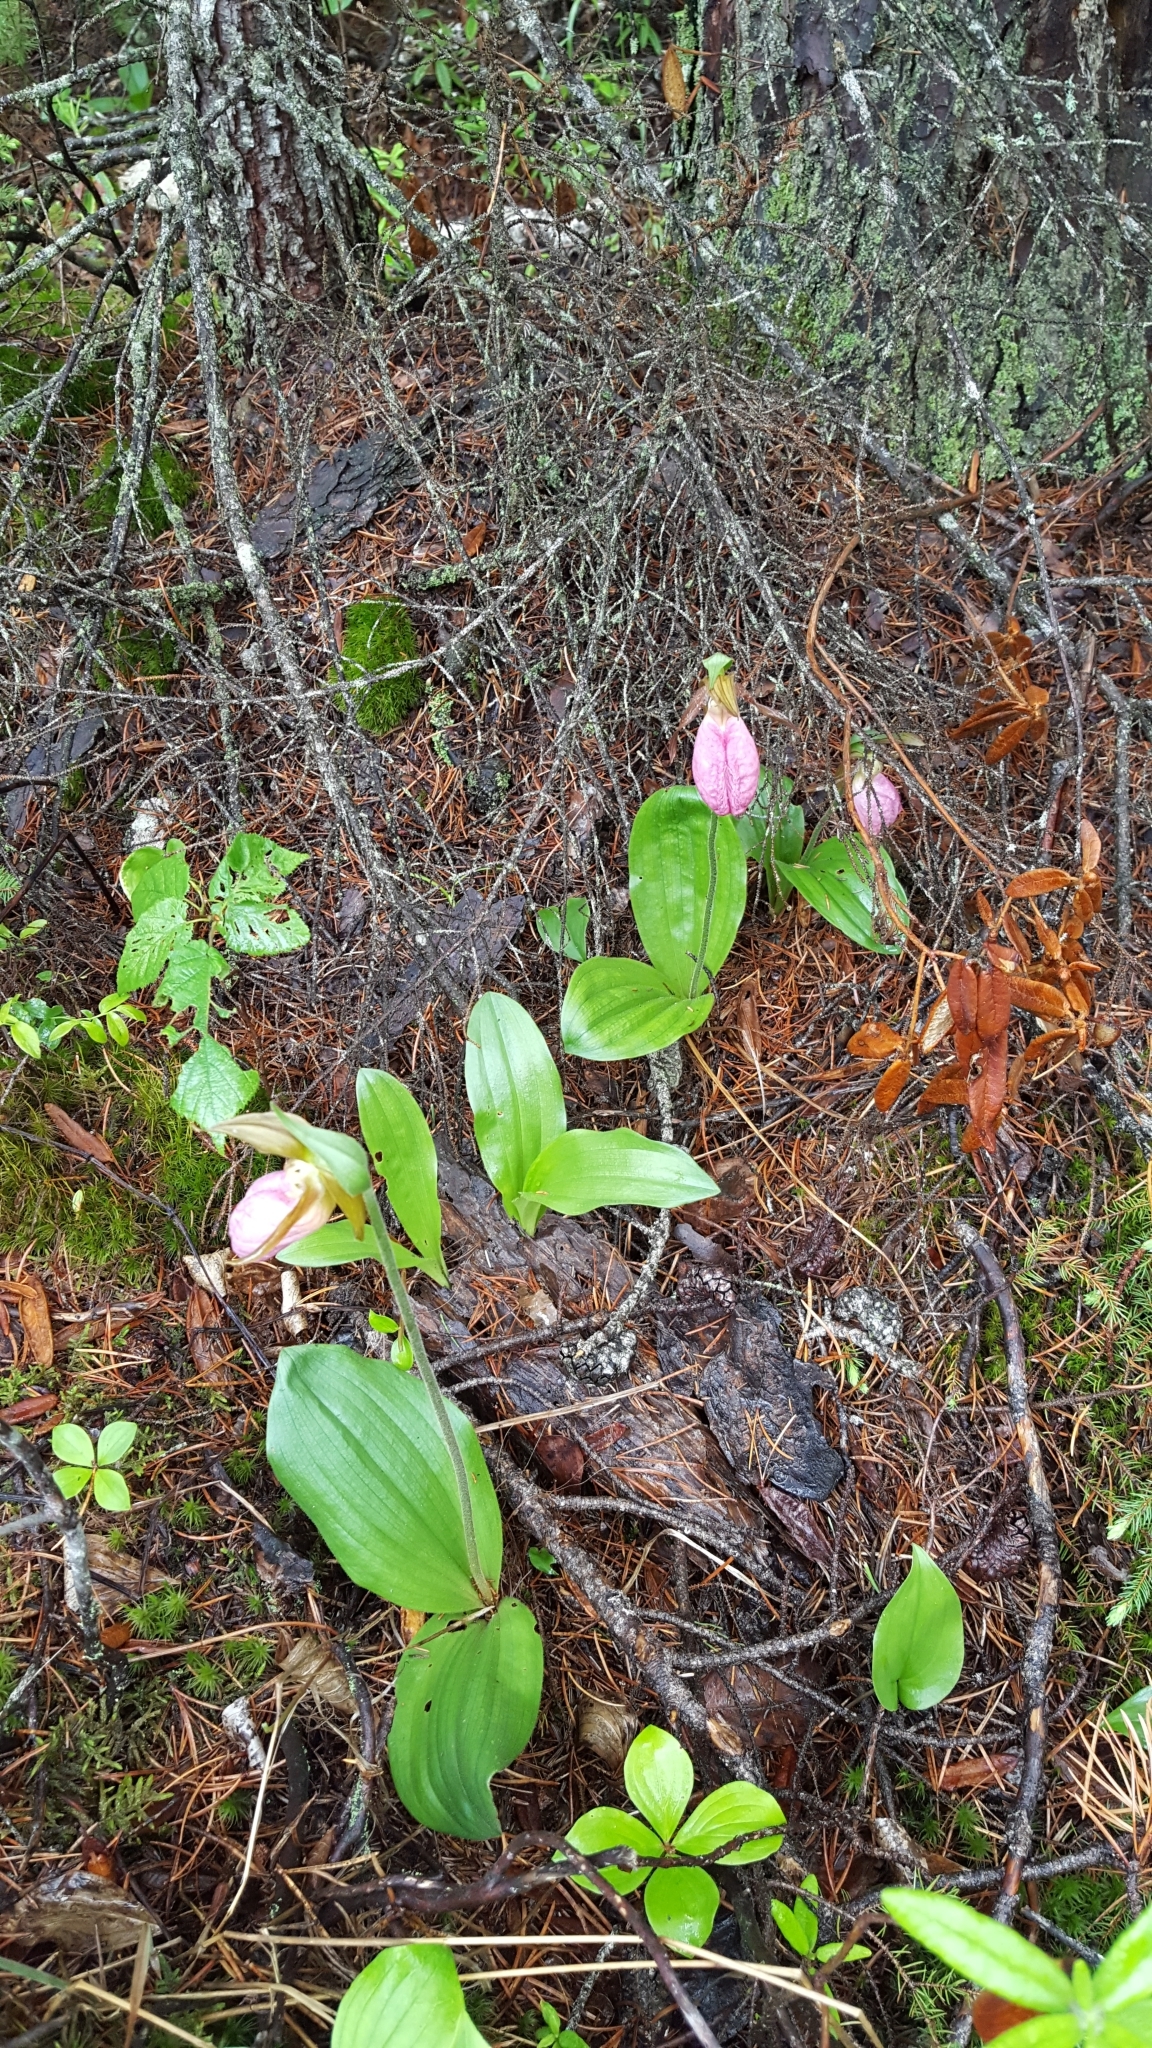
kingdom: Plantae
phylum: Tracheophyta
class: Liliopsida
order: Asparagales
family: Orchidaceae
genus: Cypripedium
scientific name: Cypripedium acaule
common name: Pink lady's-slipper
